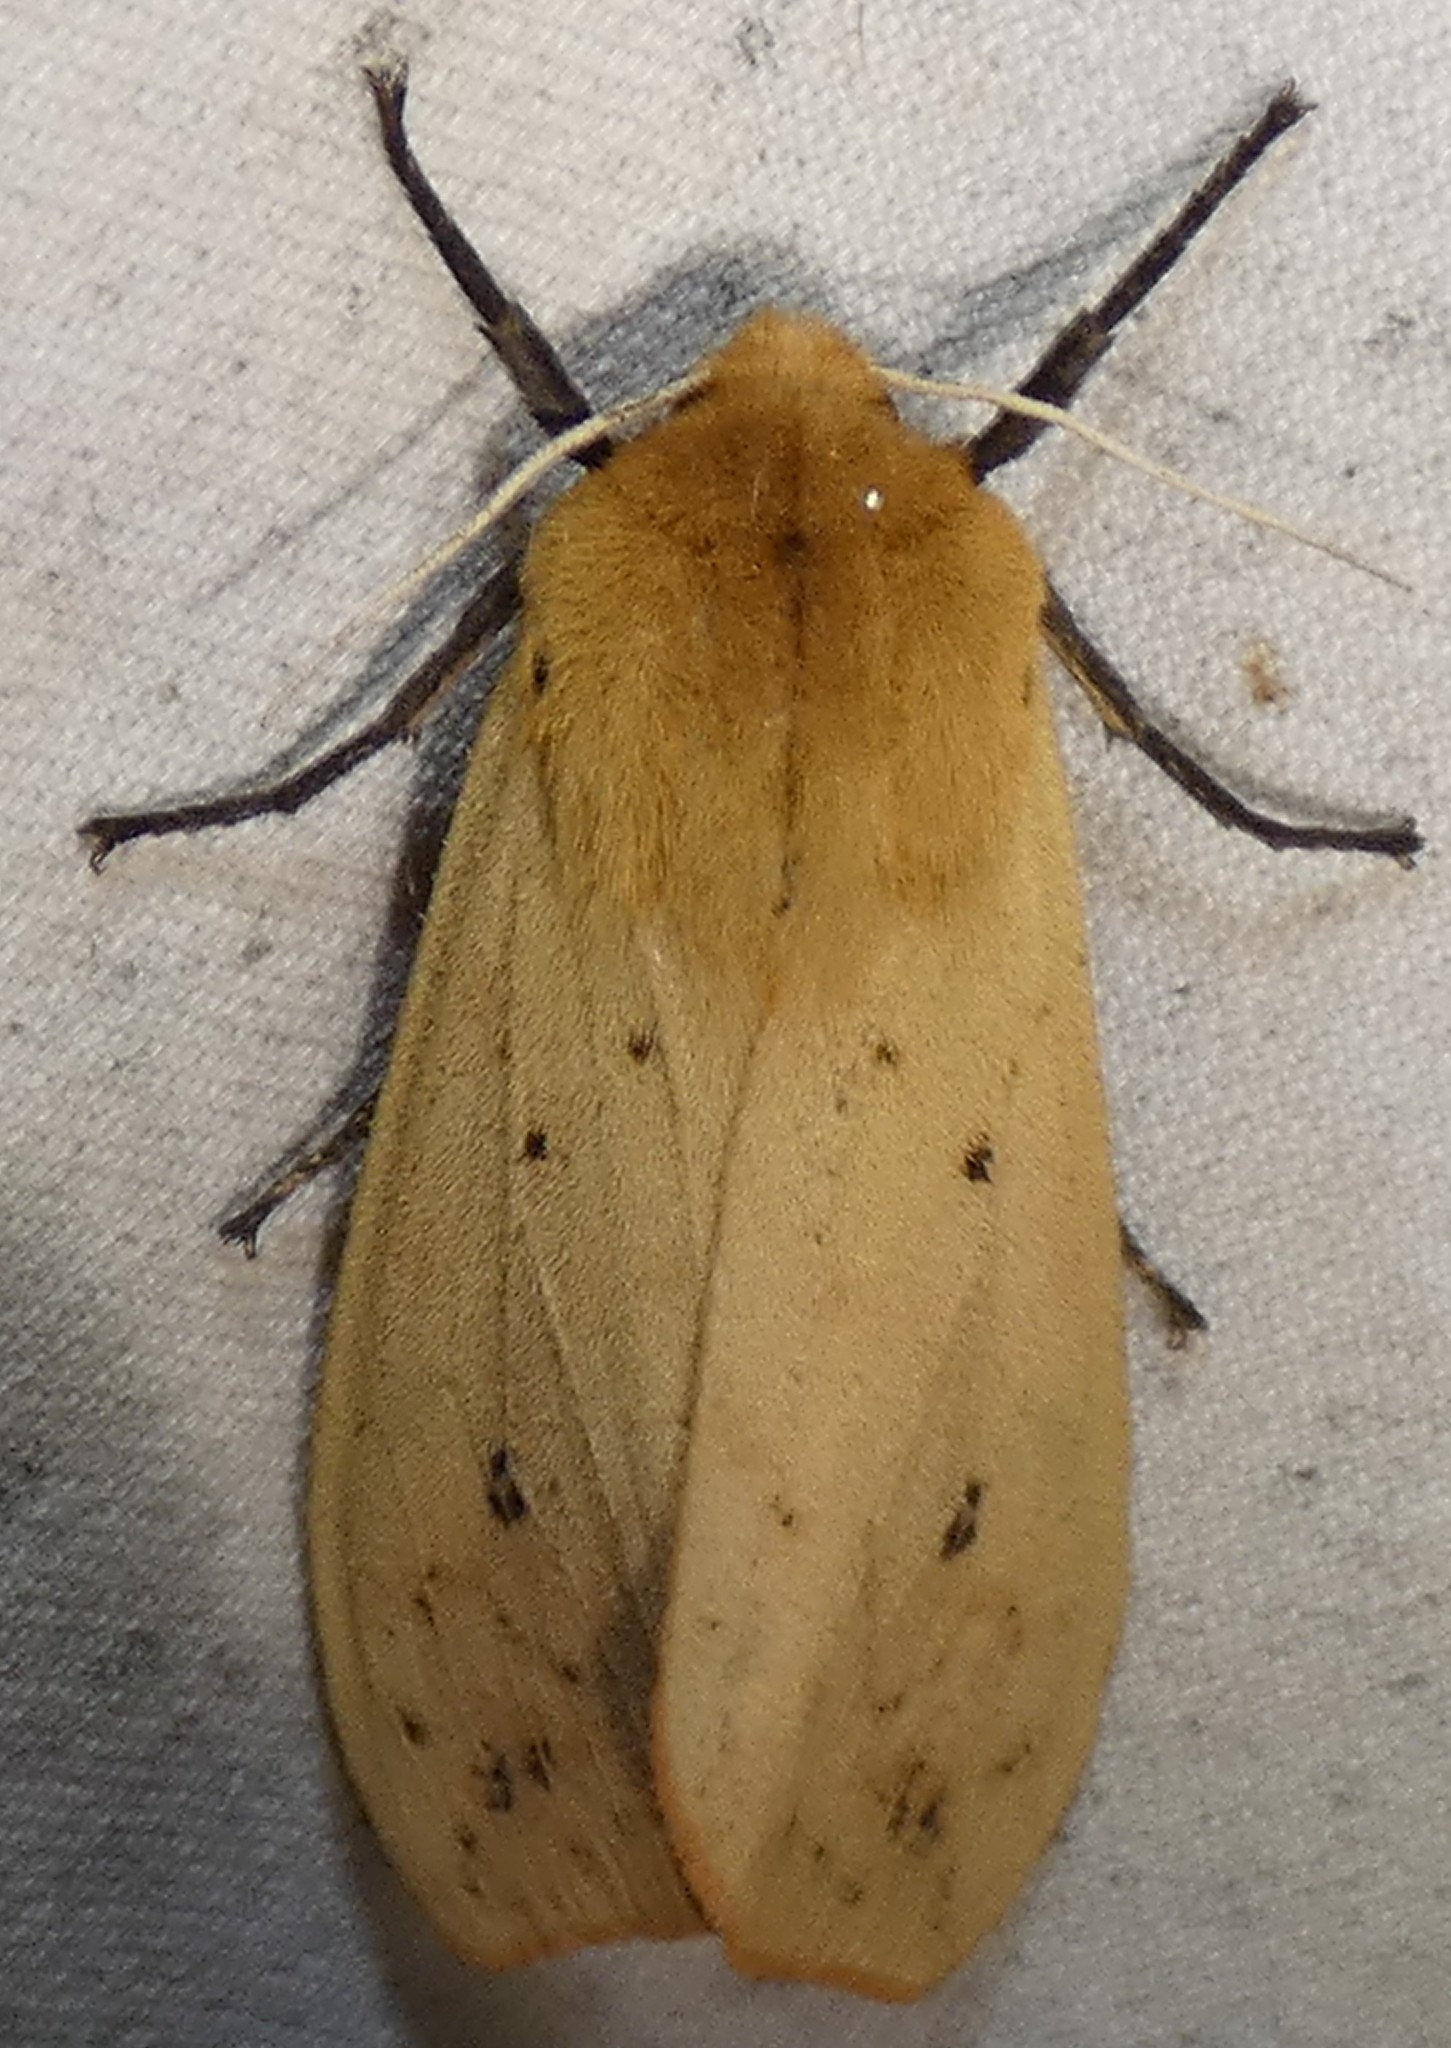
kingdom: Animalia
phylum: Arthropoda
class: Insecta
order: Lepidoptera
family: Erebidae
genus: Pyrrharctia
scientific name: Pyrrharctia isabella
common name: Isabella tiger moth
